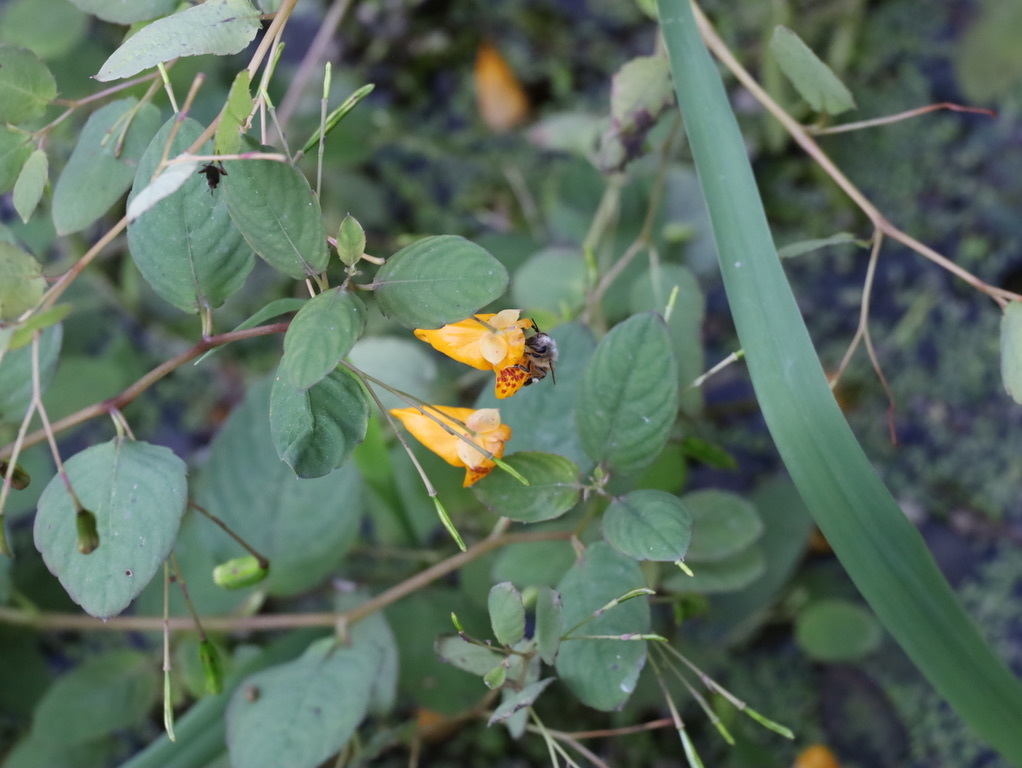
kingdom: Plantae
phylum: Tracheophyta
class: Magnoliopsida
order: Ericales
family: Balsaminaceae
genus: Impatiens
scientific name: Impatiens capensis
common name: Orange balsam
